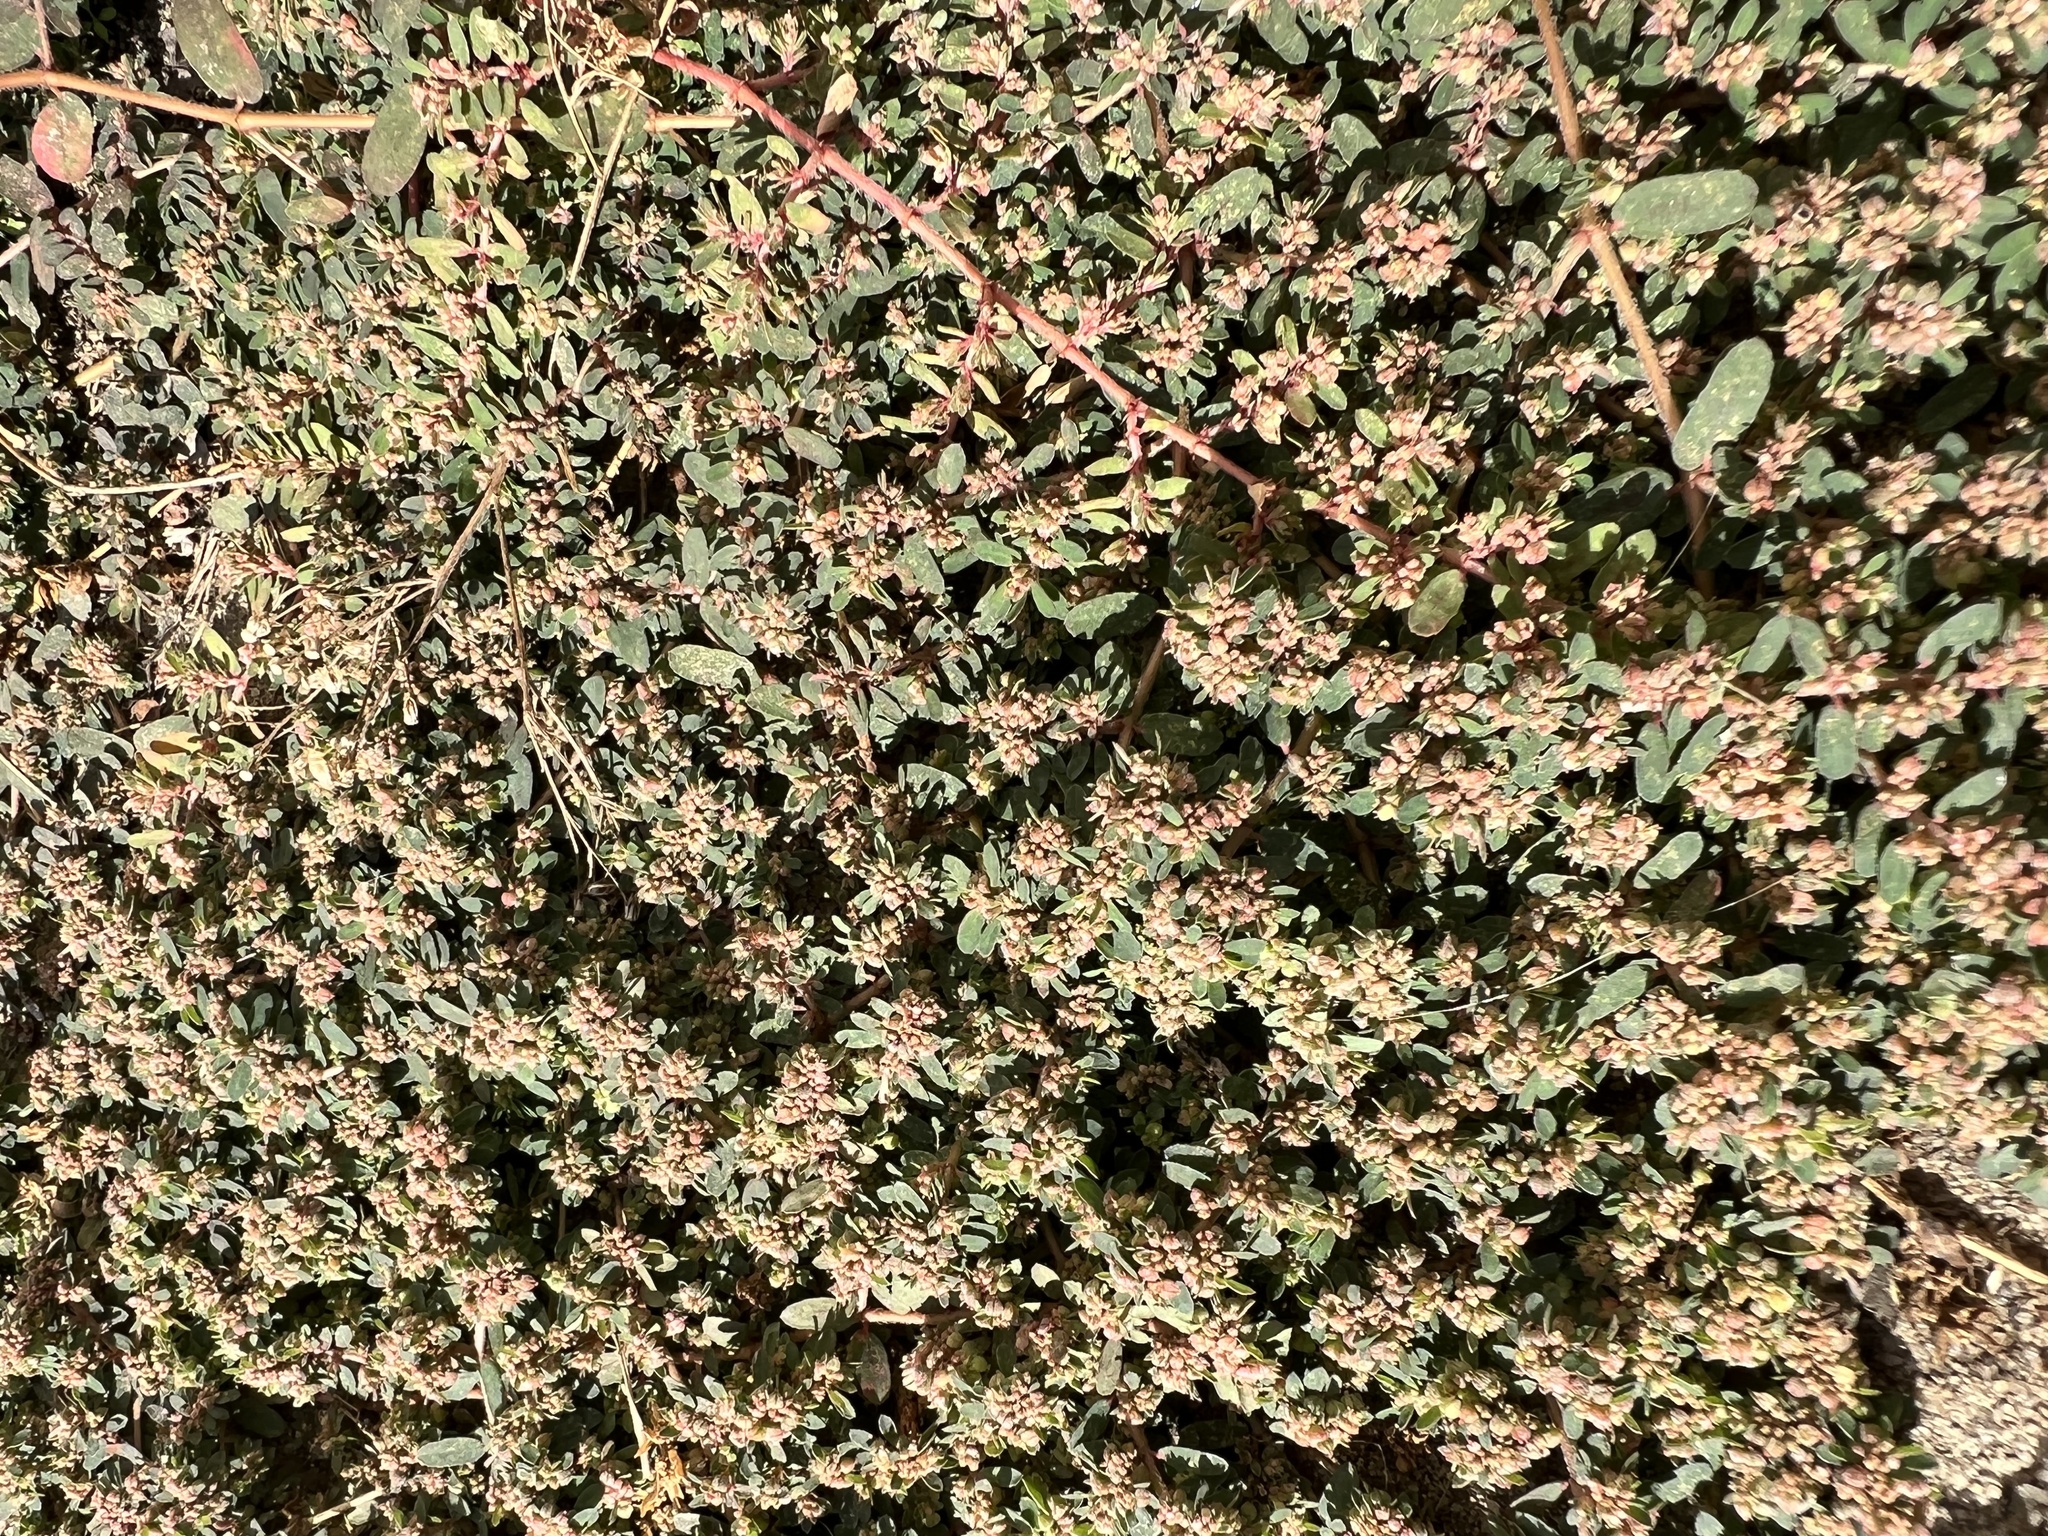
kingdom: Plantae
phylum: Tracheophyta
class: Magnoliopsida
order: Malpighiales
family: Euphorbiaceae
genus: Euphorbia
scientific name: Euphorbia maculata
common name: Spotted spurge
